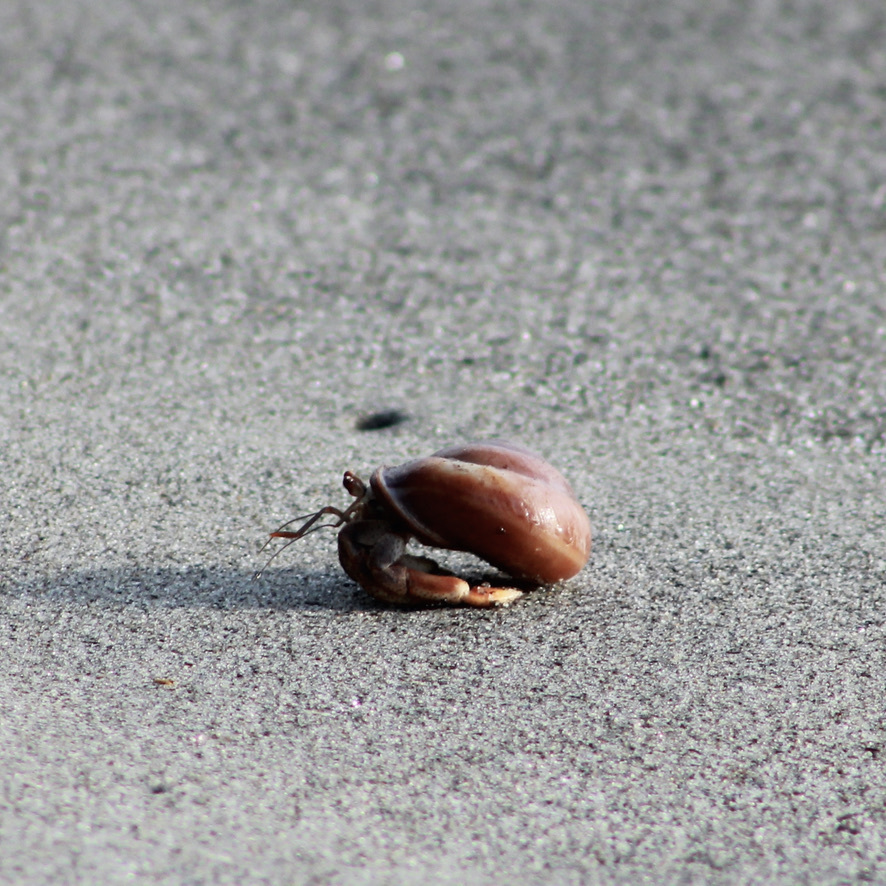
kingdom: Animalia
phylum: Arthropoda
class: Malacostraca
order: Decapoda
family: Coenobitidae
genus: Coenobita
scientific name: Coenobita clypeatus
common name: Caribbean hermit crab
